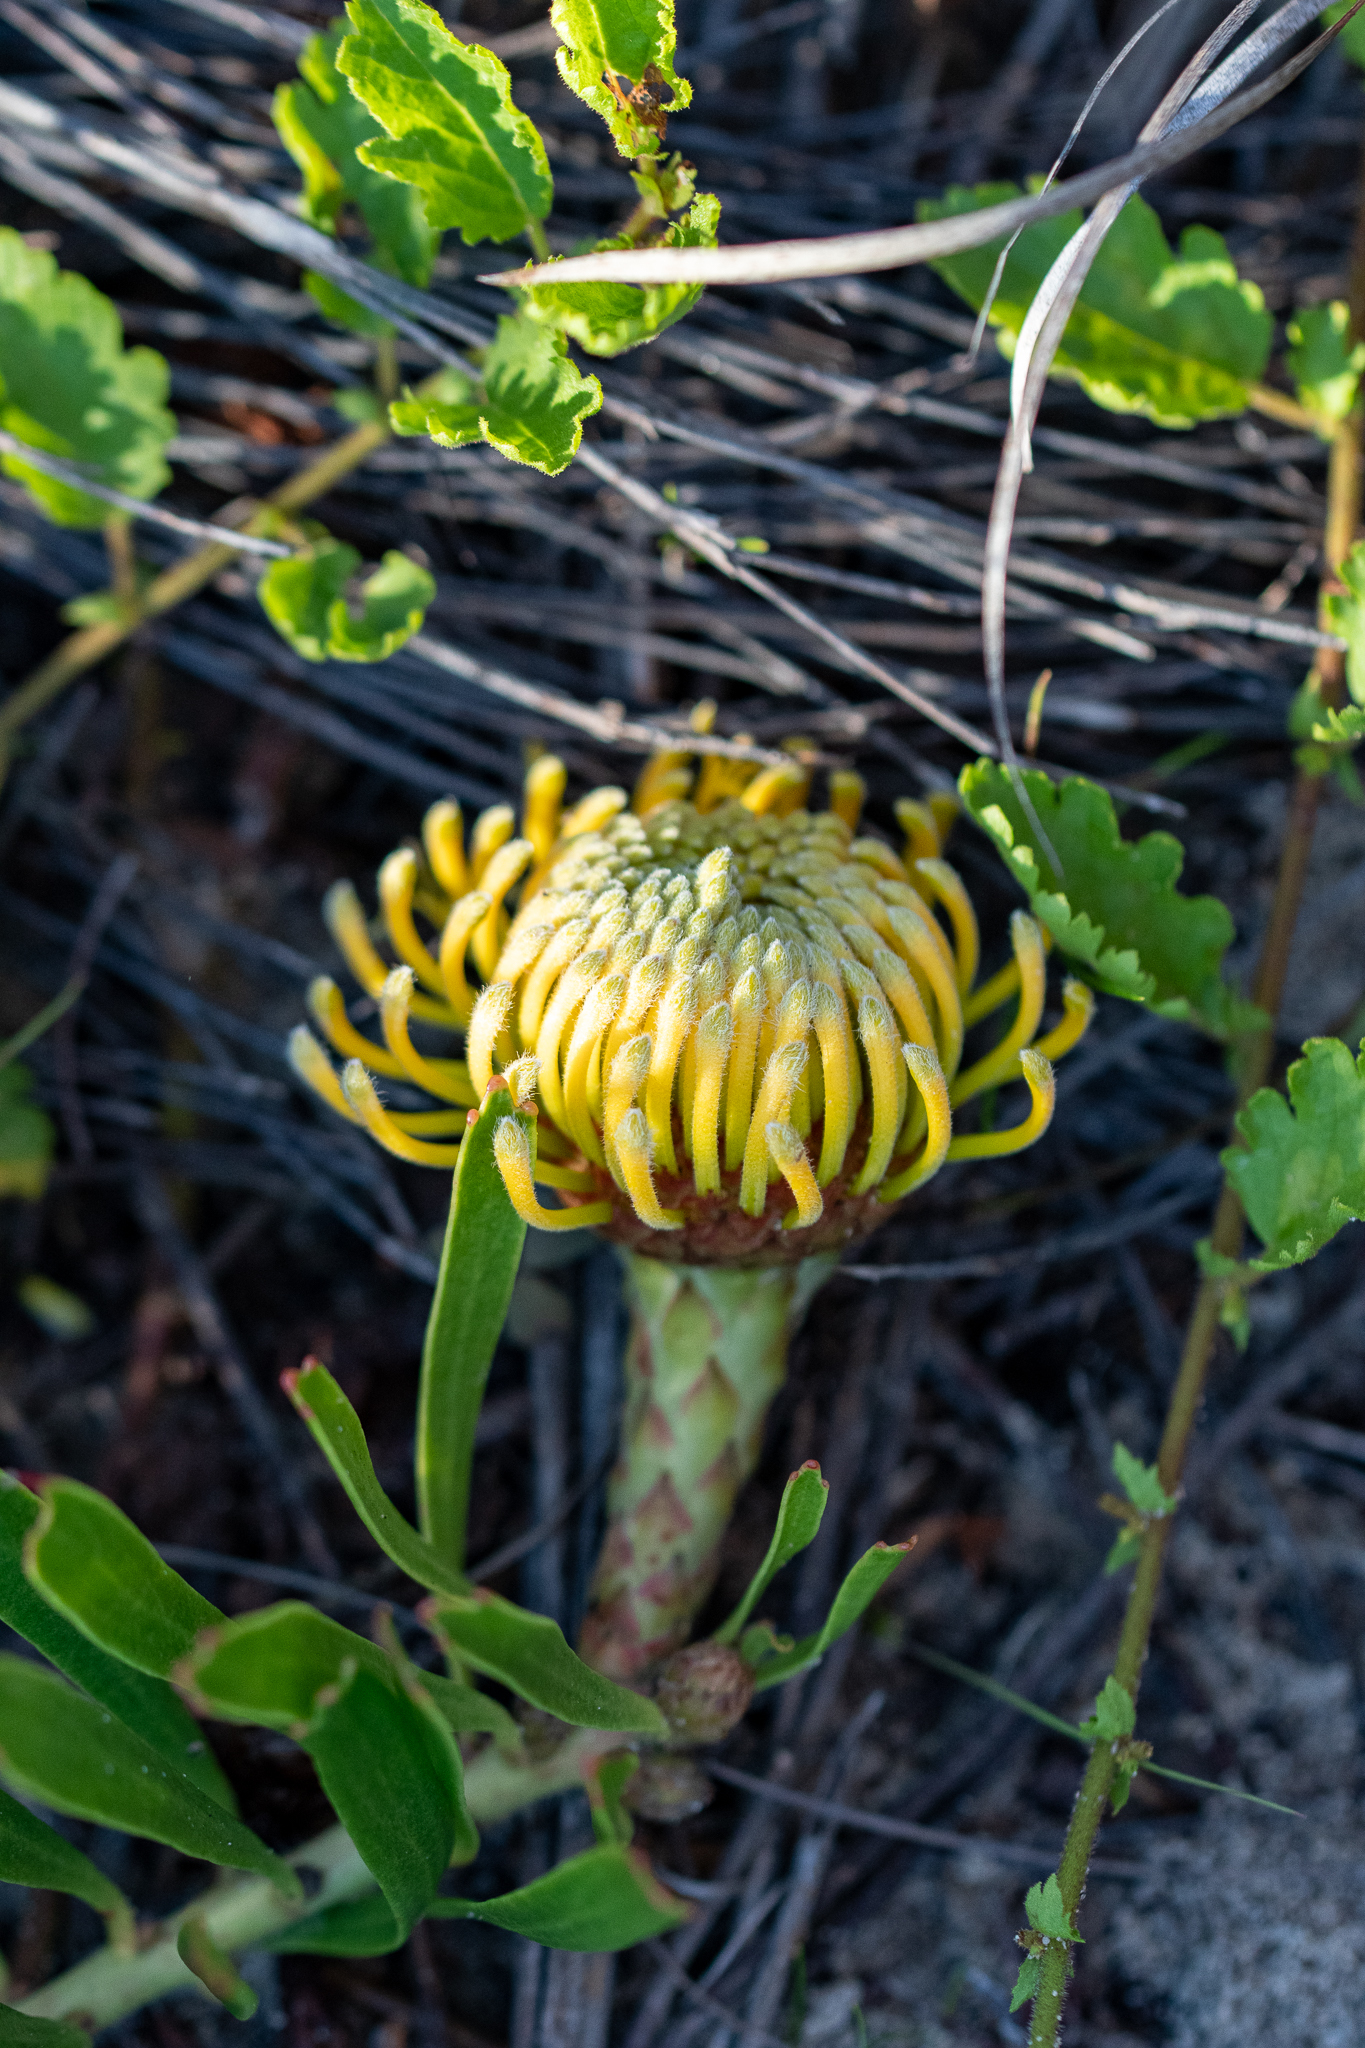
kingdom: Plantae
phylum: Tracheophyta
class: Magnoliopsida
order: Proteales
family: Proteaceae
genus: Leucospermum
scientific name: Leucospermum hypophyllocarpodendron
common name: Snakestem pincushion
